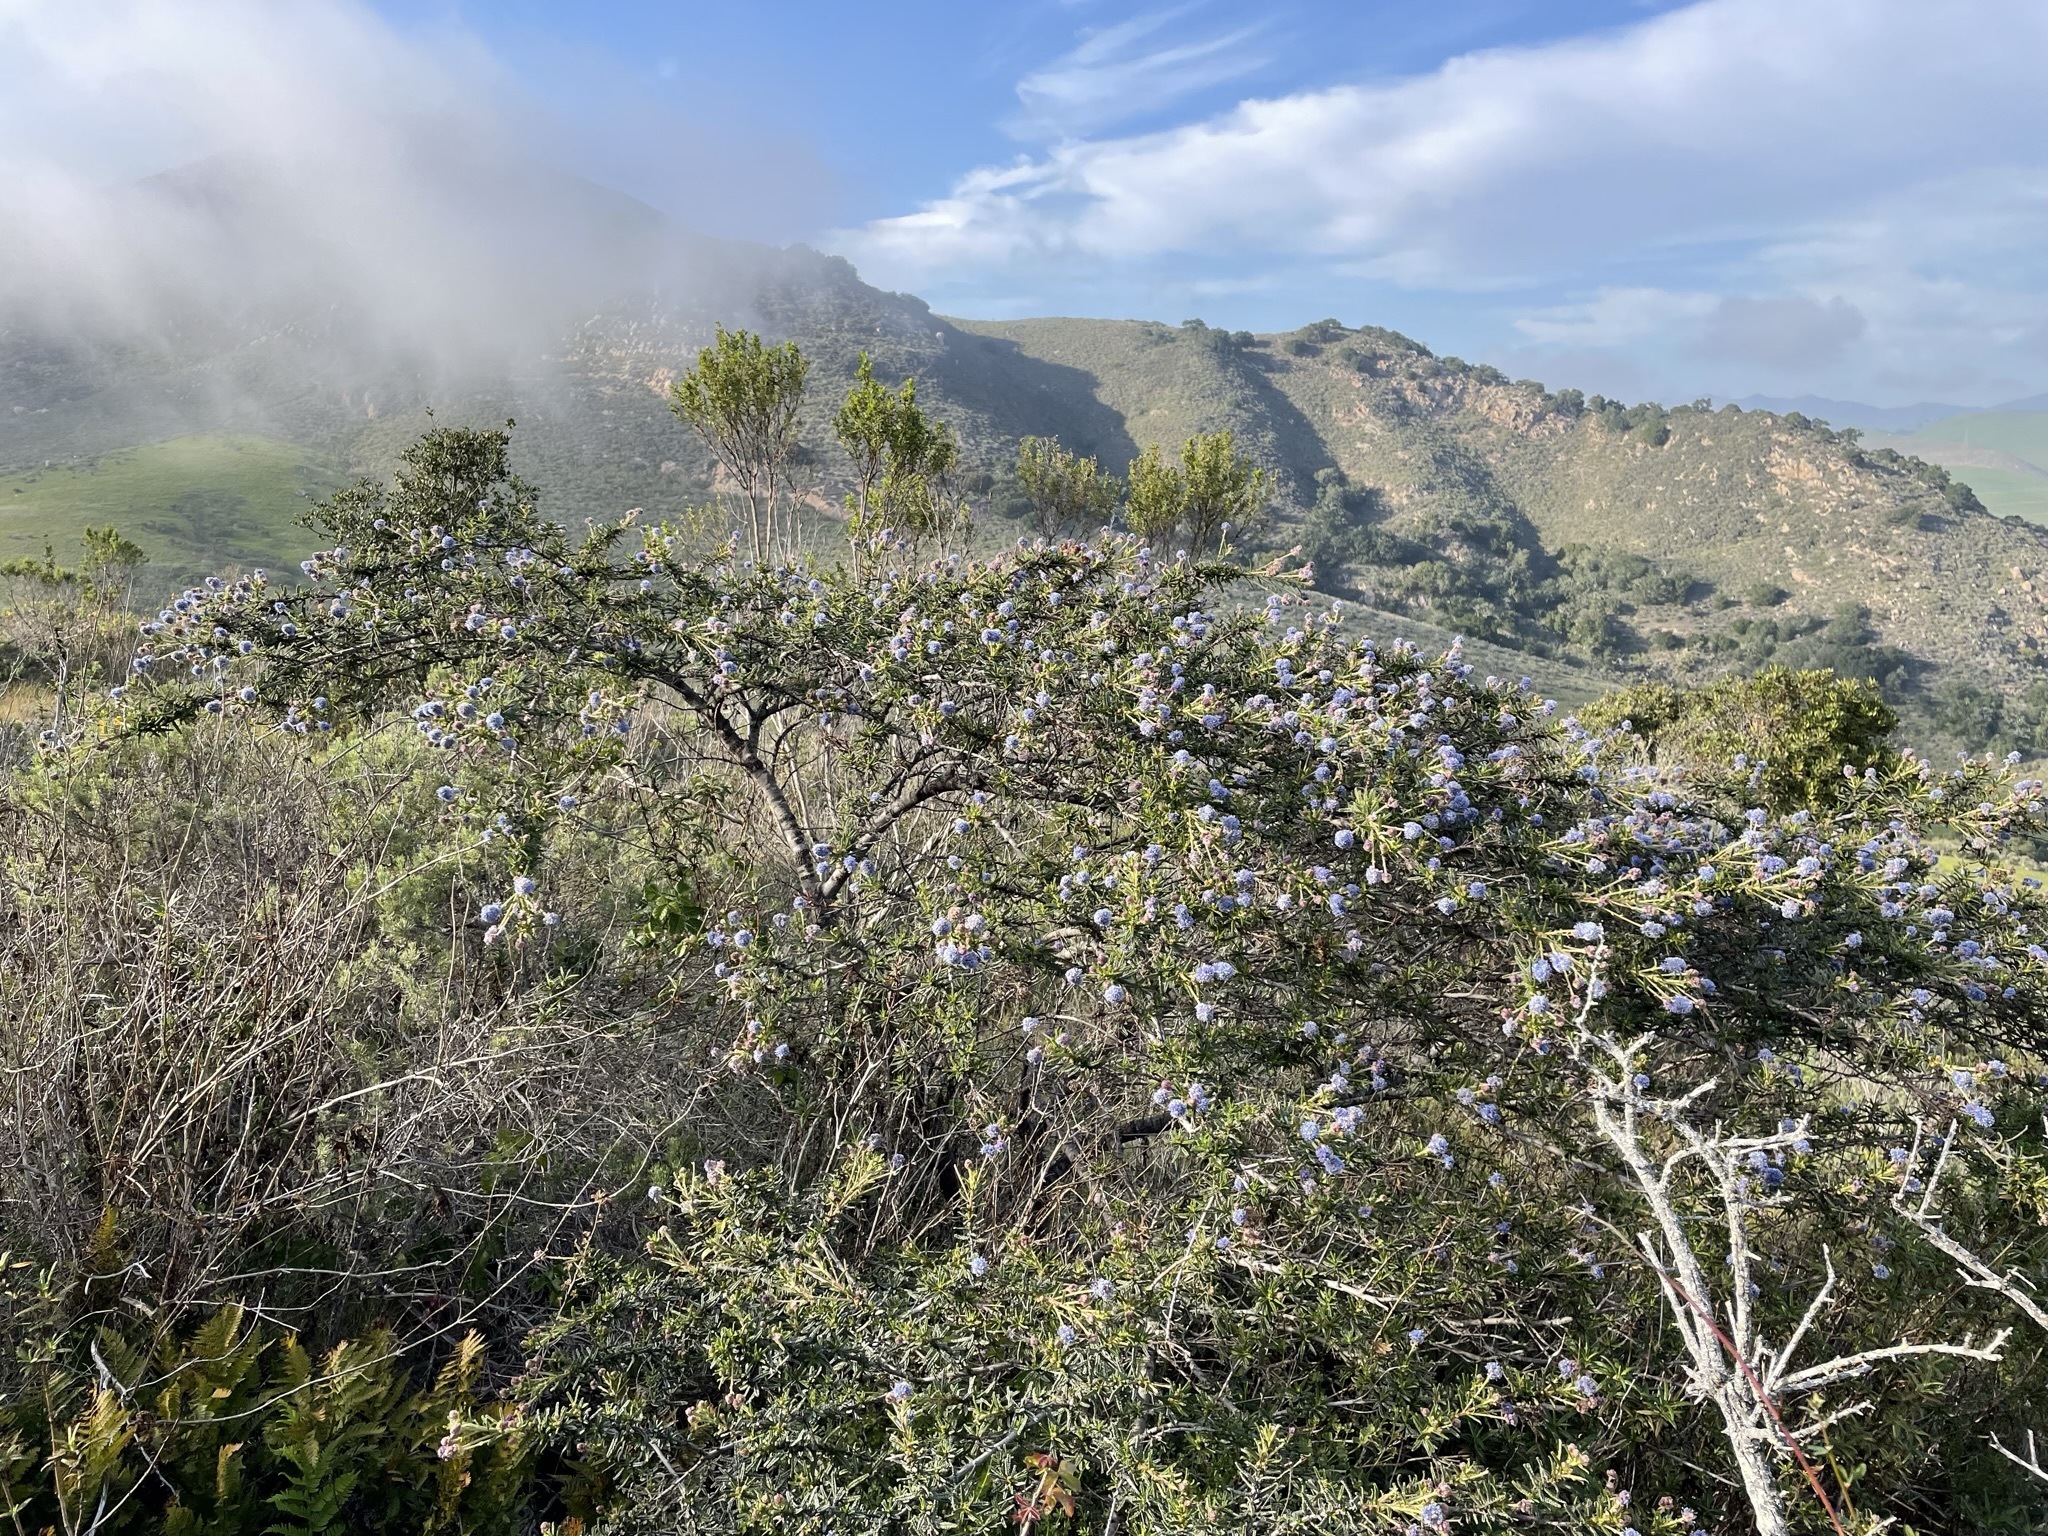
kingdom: Plantae
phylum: Tracheophyta
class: Magnoliopsida
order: Rosales
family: Rhamnaceae
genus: Ceanothus
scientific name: Ceanothus papillosus
